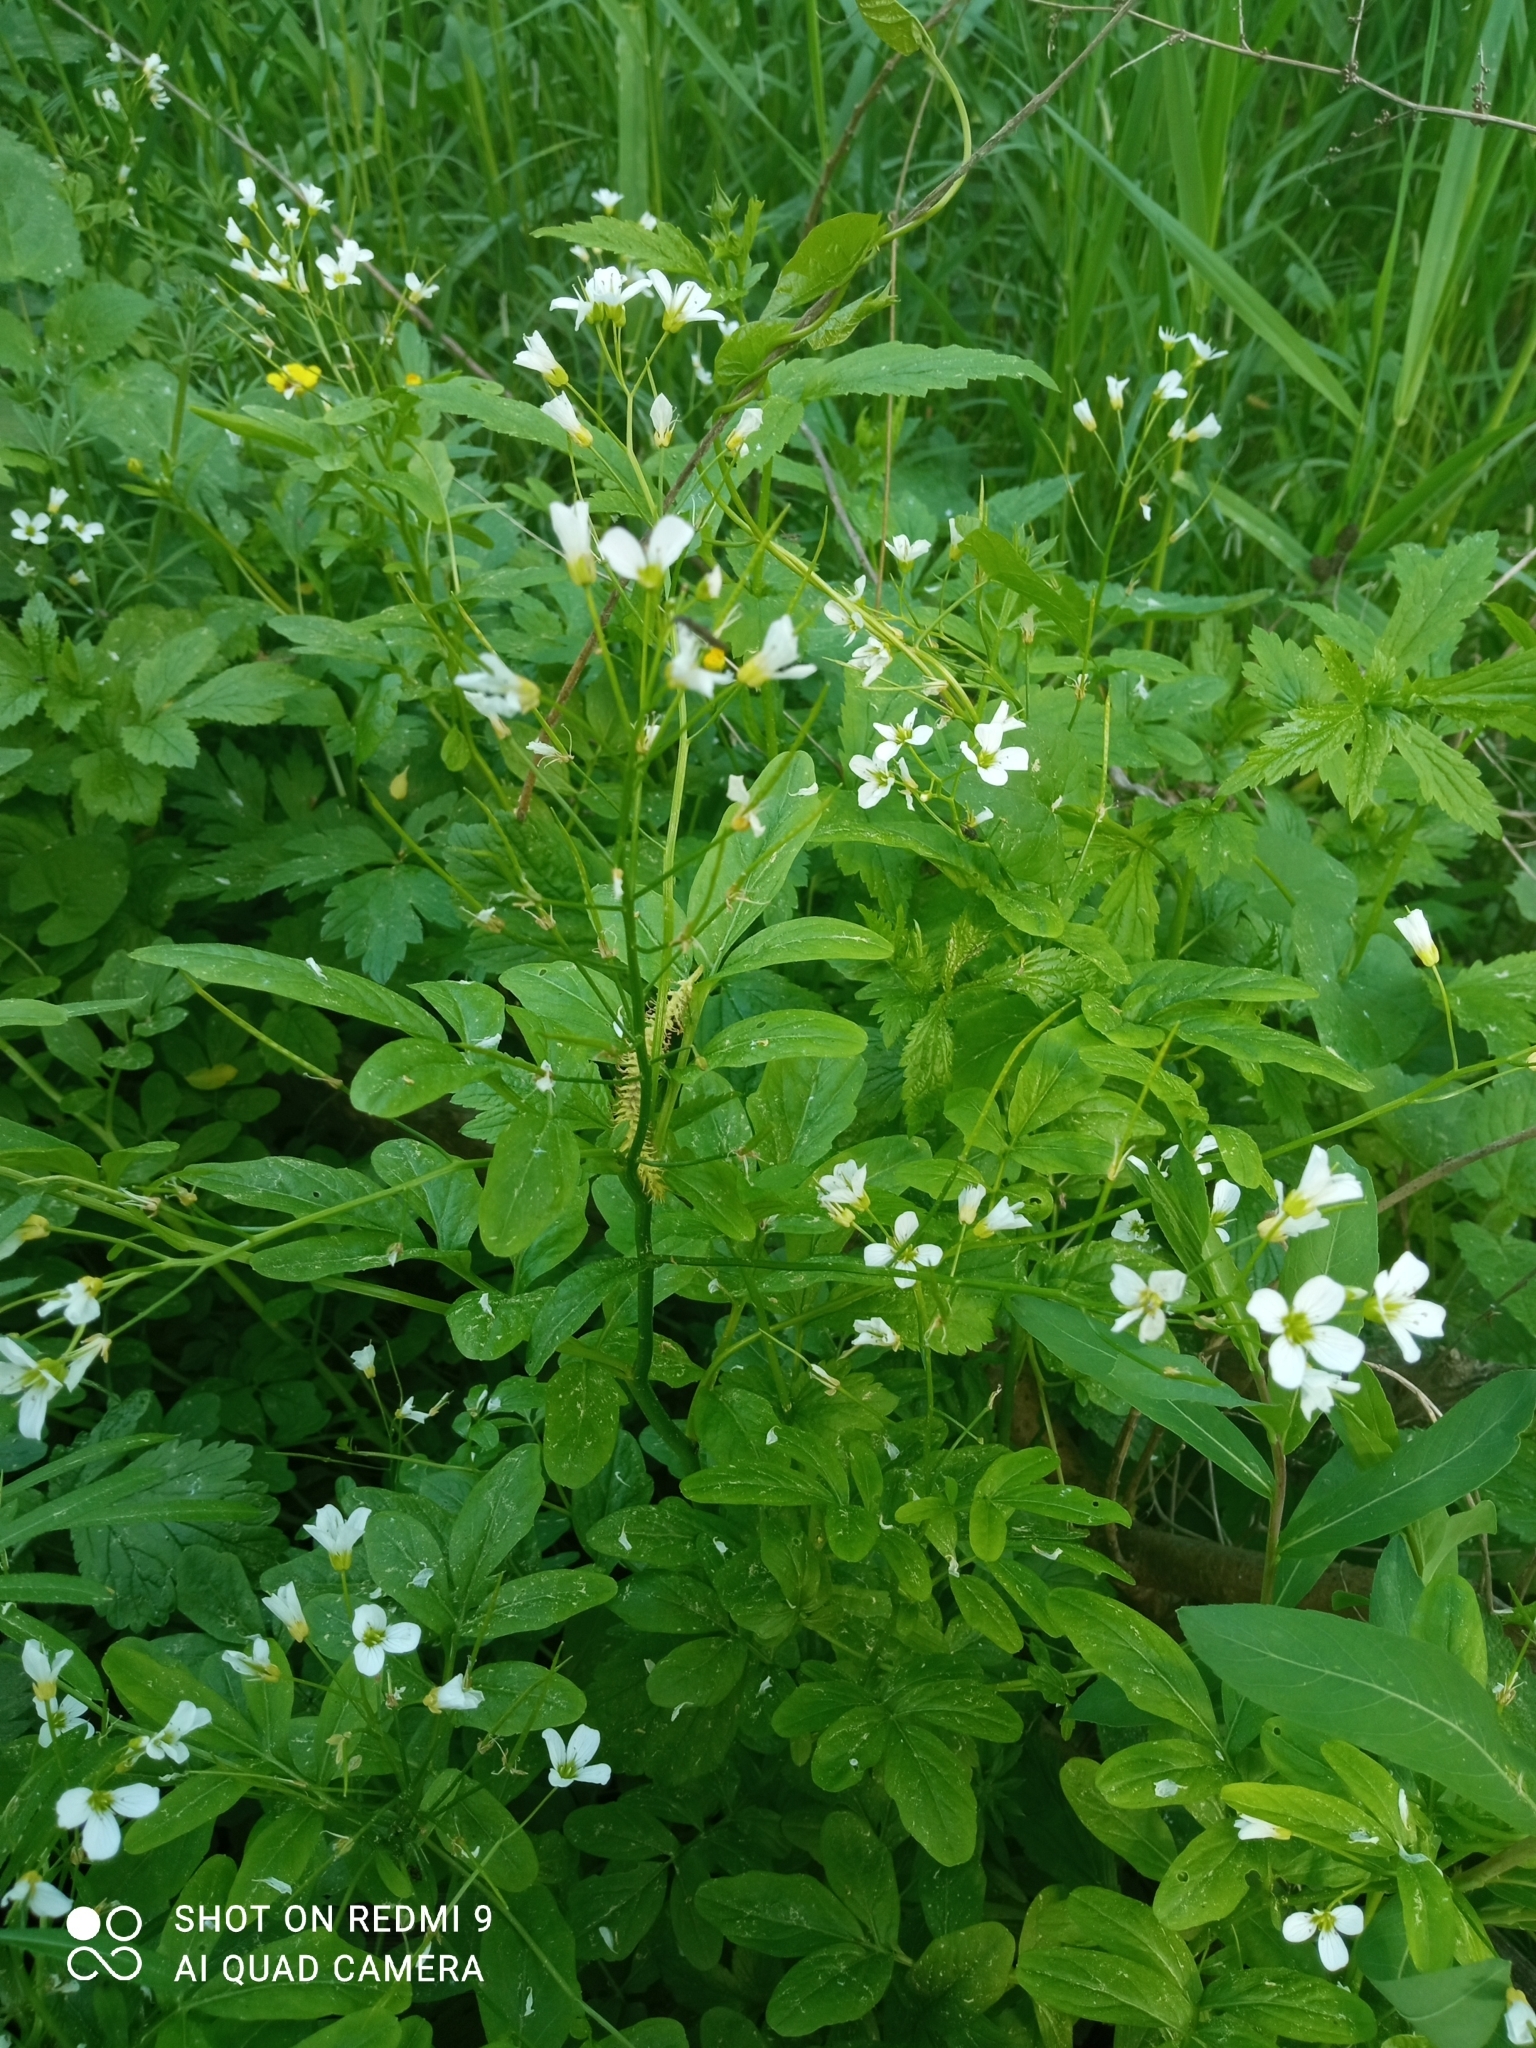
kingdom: Plantae
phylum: Tracheophyta
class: Magnoliopsida
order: Brassicales
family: Brassicaceae
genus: Cardamine
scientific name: Cardamine amara
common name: Large bitter-cress
